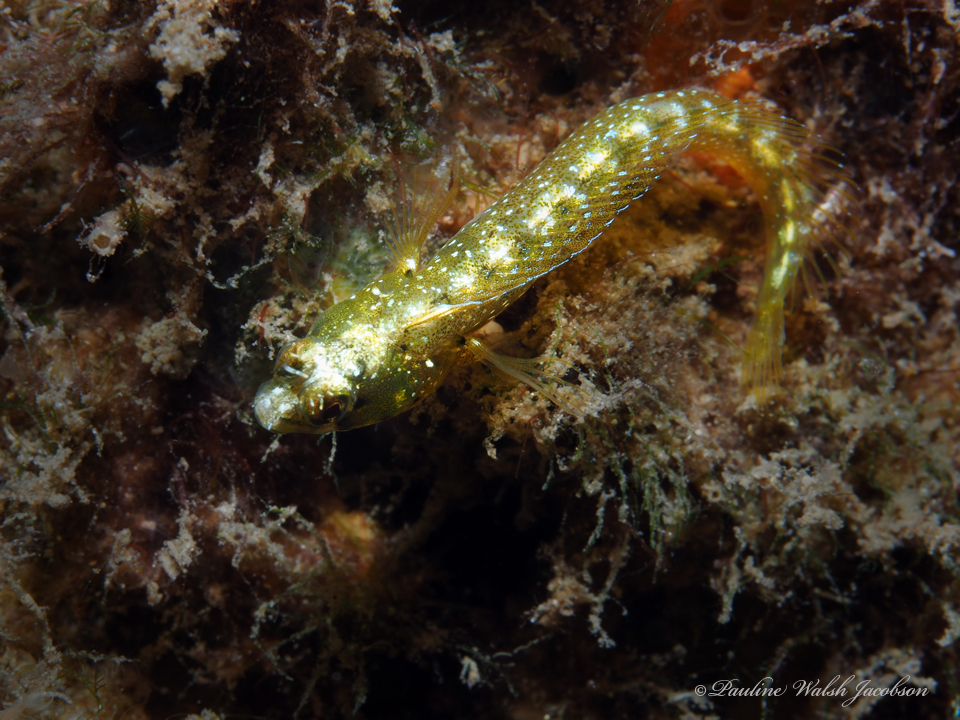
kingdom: Animalia
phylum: Chordata
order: Perciformes
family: Chaenopsidae
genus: Acanthemblemaria
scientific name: Acanthemblemaria aspera
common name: Roughhead blenny
